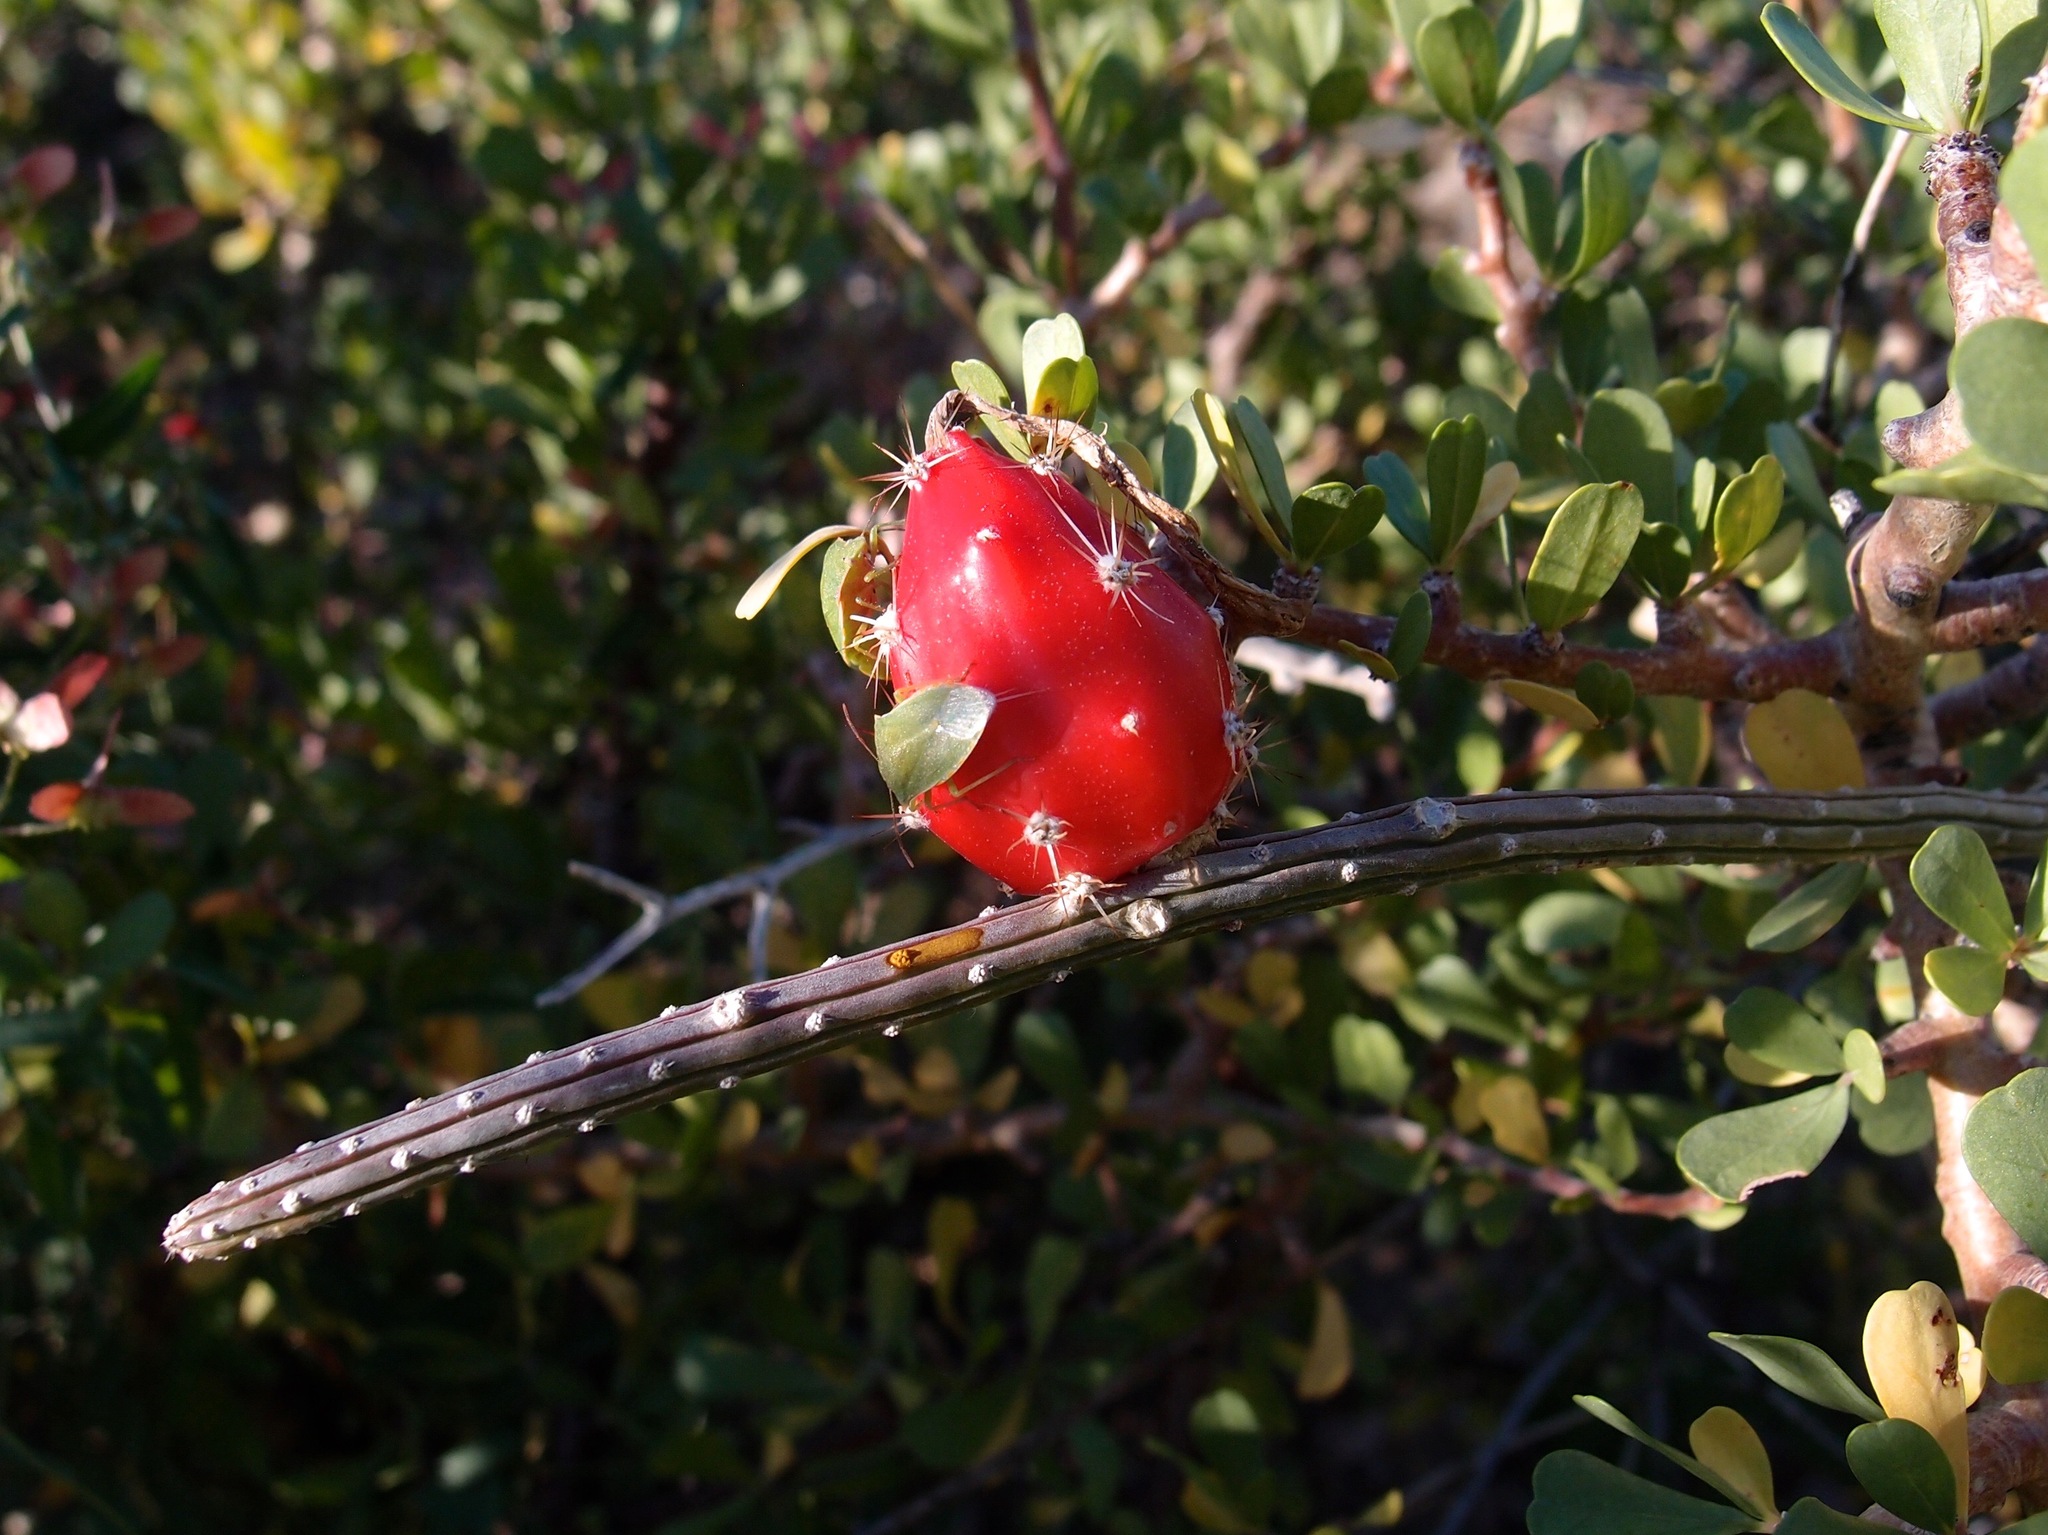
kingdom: Plantae
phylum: Tracheophyta
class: Magnoliopsida
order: Caryophyllales
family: Cactaceae
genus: Peniocereus
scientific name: Peniocereus striatus
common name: Gearstem cactus
